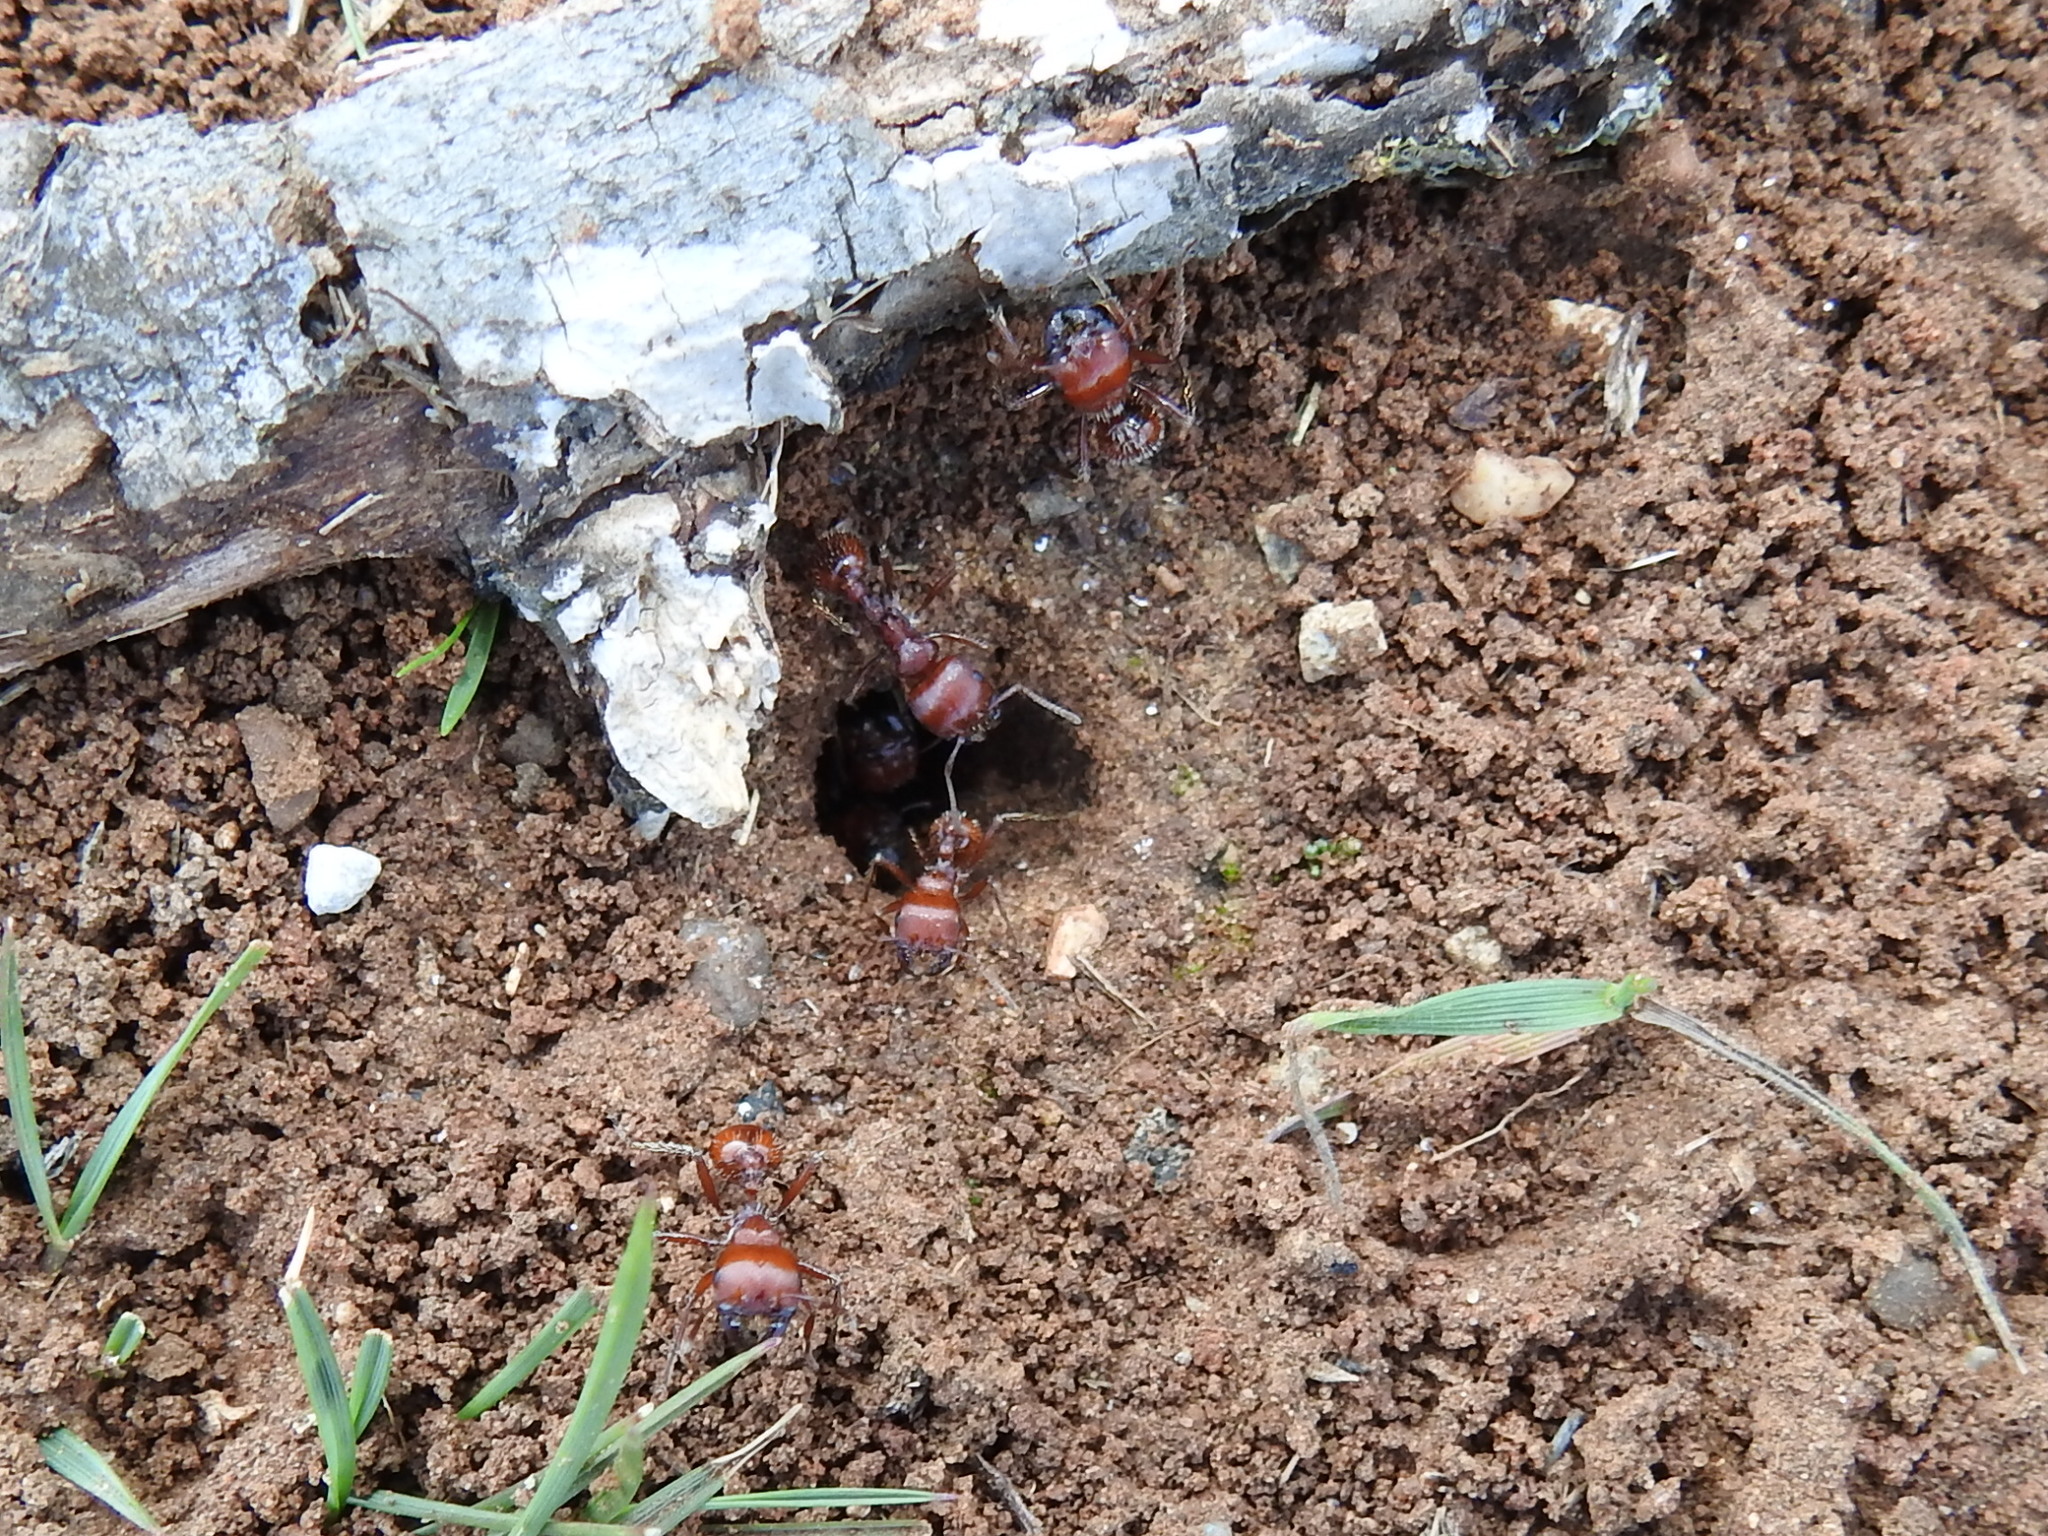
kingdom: Animalia
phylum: Arthropoda
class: Insecta
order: Hymenoptera
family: Formicidae
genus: Pogonomyrmex
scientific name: Pogonomyrmex barbatus
